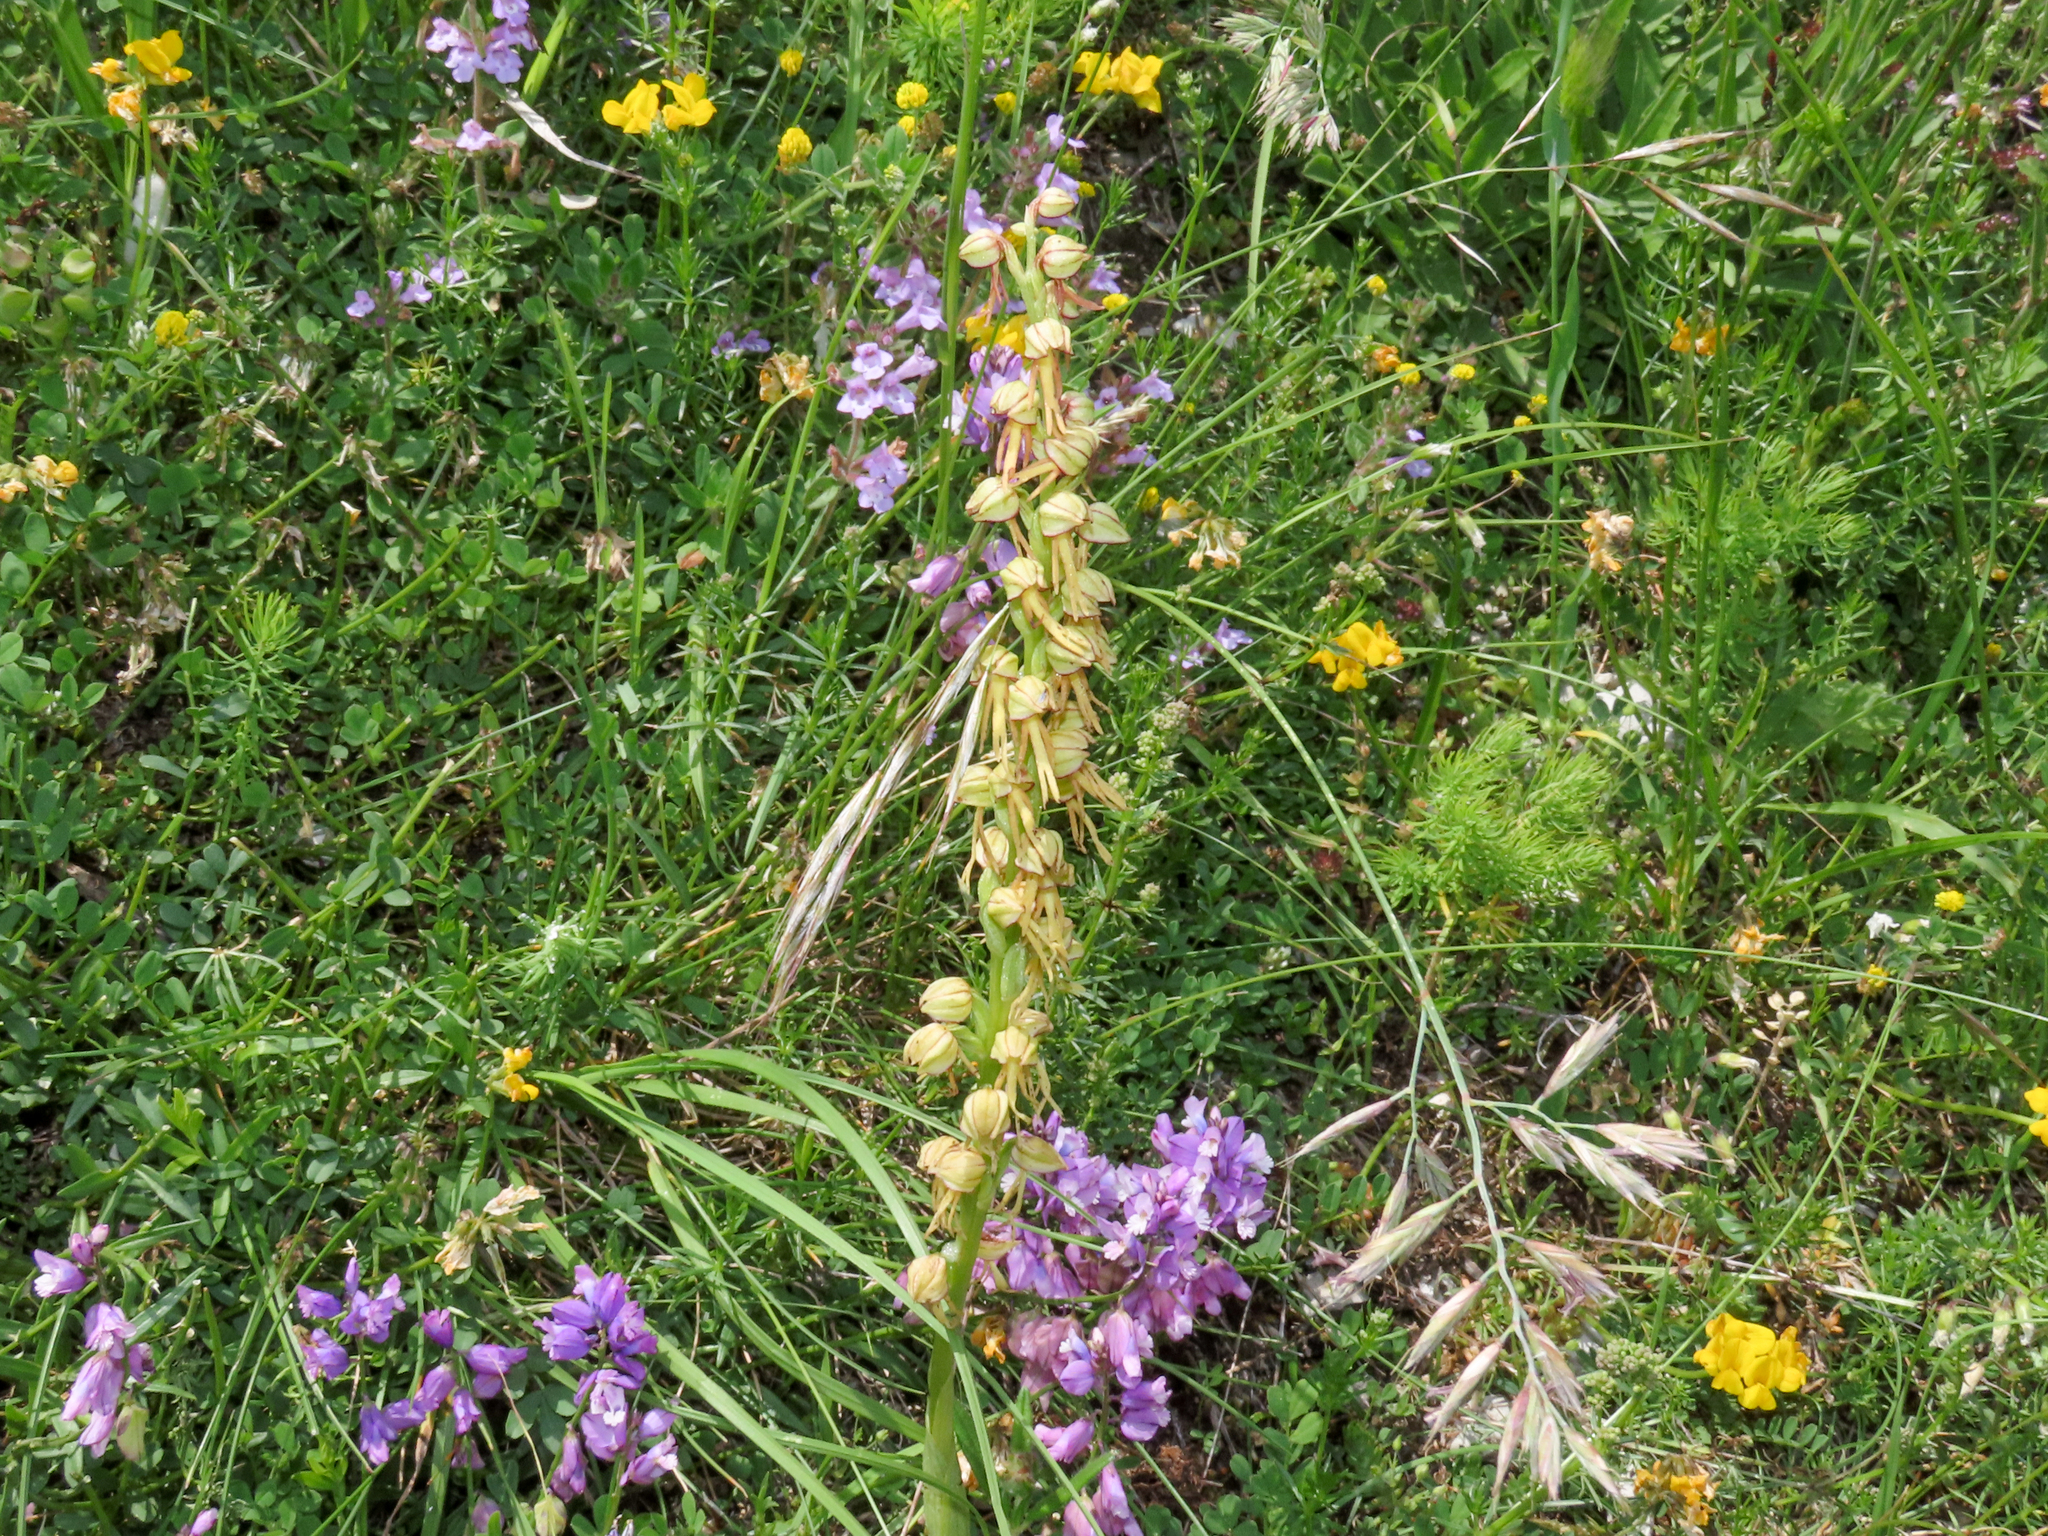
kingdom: Plantae
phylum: Tracheophyta
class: Liliopsida
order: Asparagales
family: Orchidaceae
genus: Orchis
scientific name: Orchis anthropophora
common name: Man orchid
